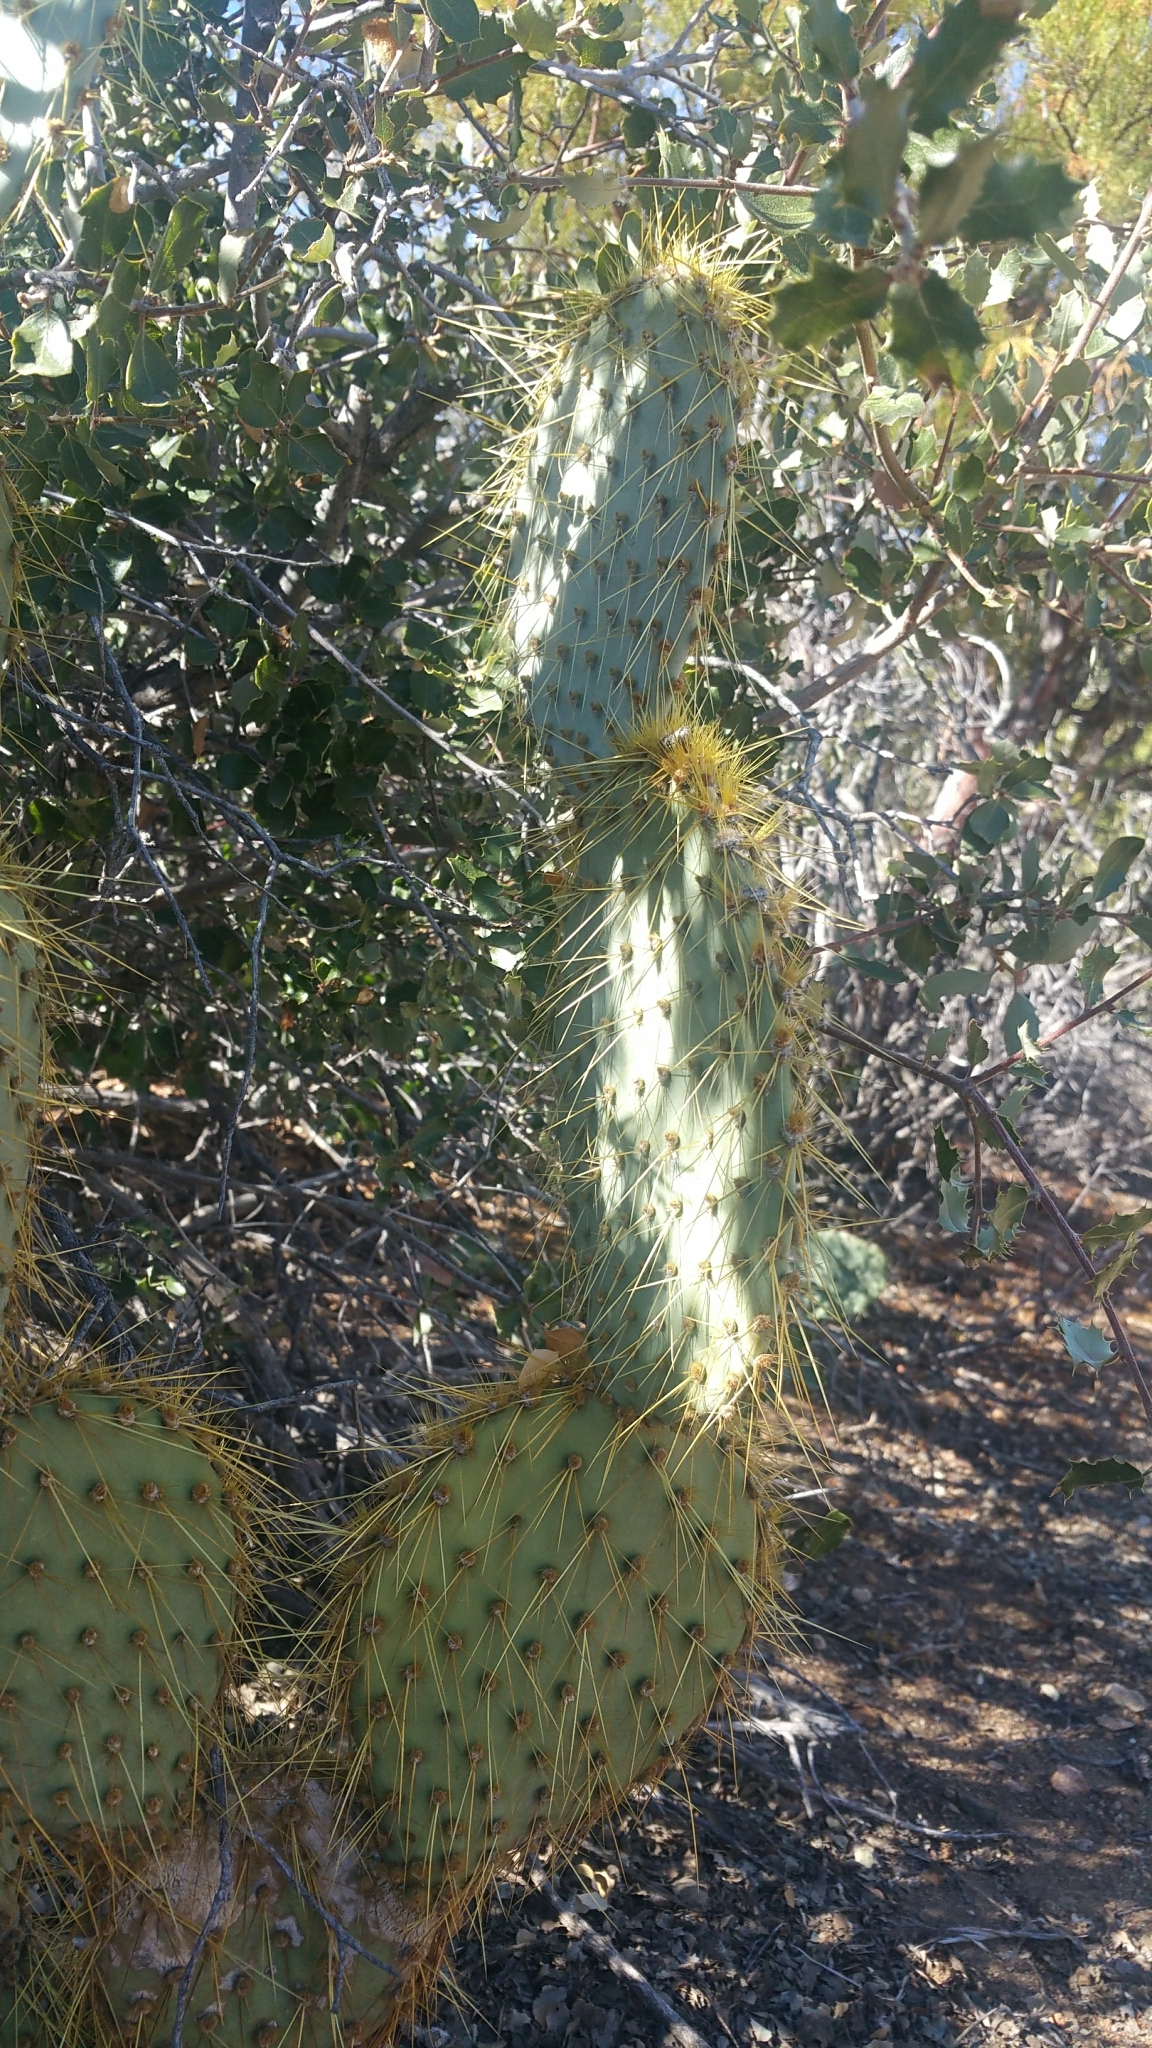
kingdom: Plantae
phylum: Tracheophyta
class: Magnoliopsida
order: Caryophyllales
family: Cactaceae
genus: Opuntia
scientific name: Opuntia chlorotica
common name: Dollar-joint prickly-pear
